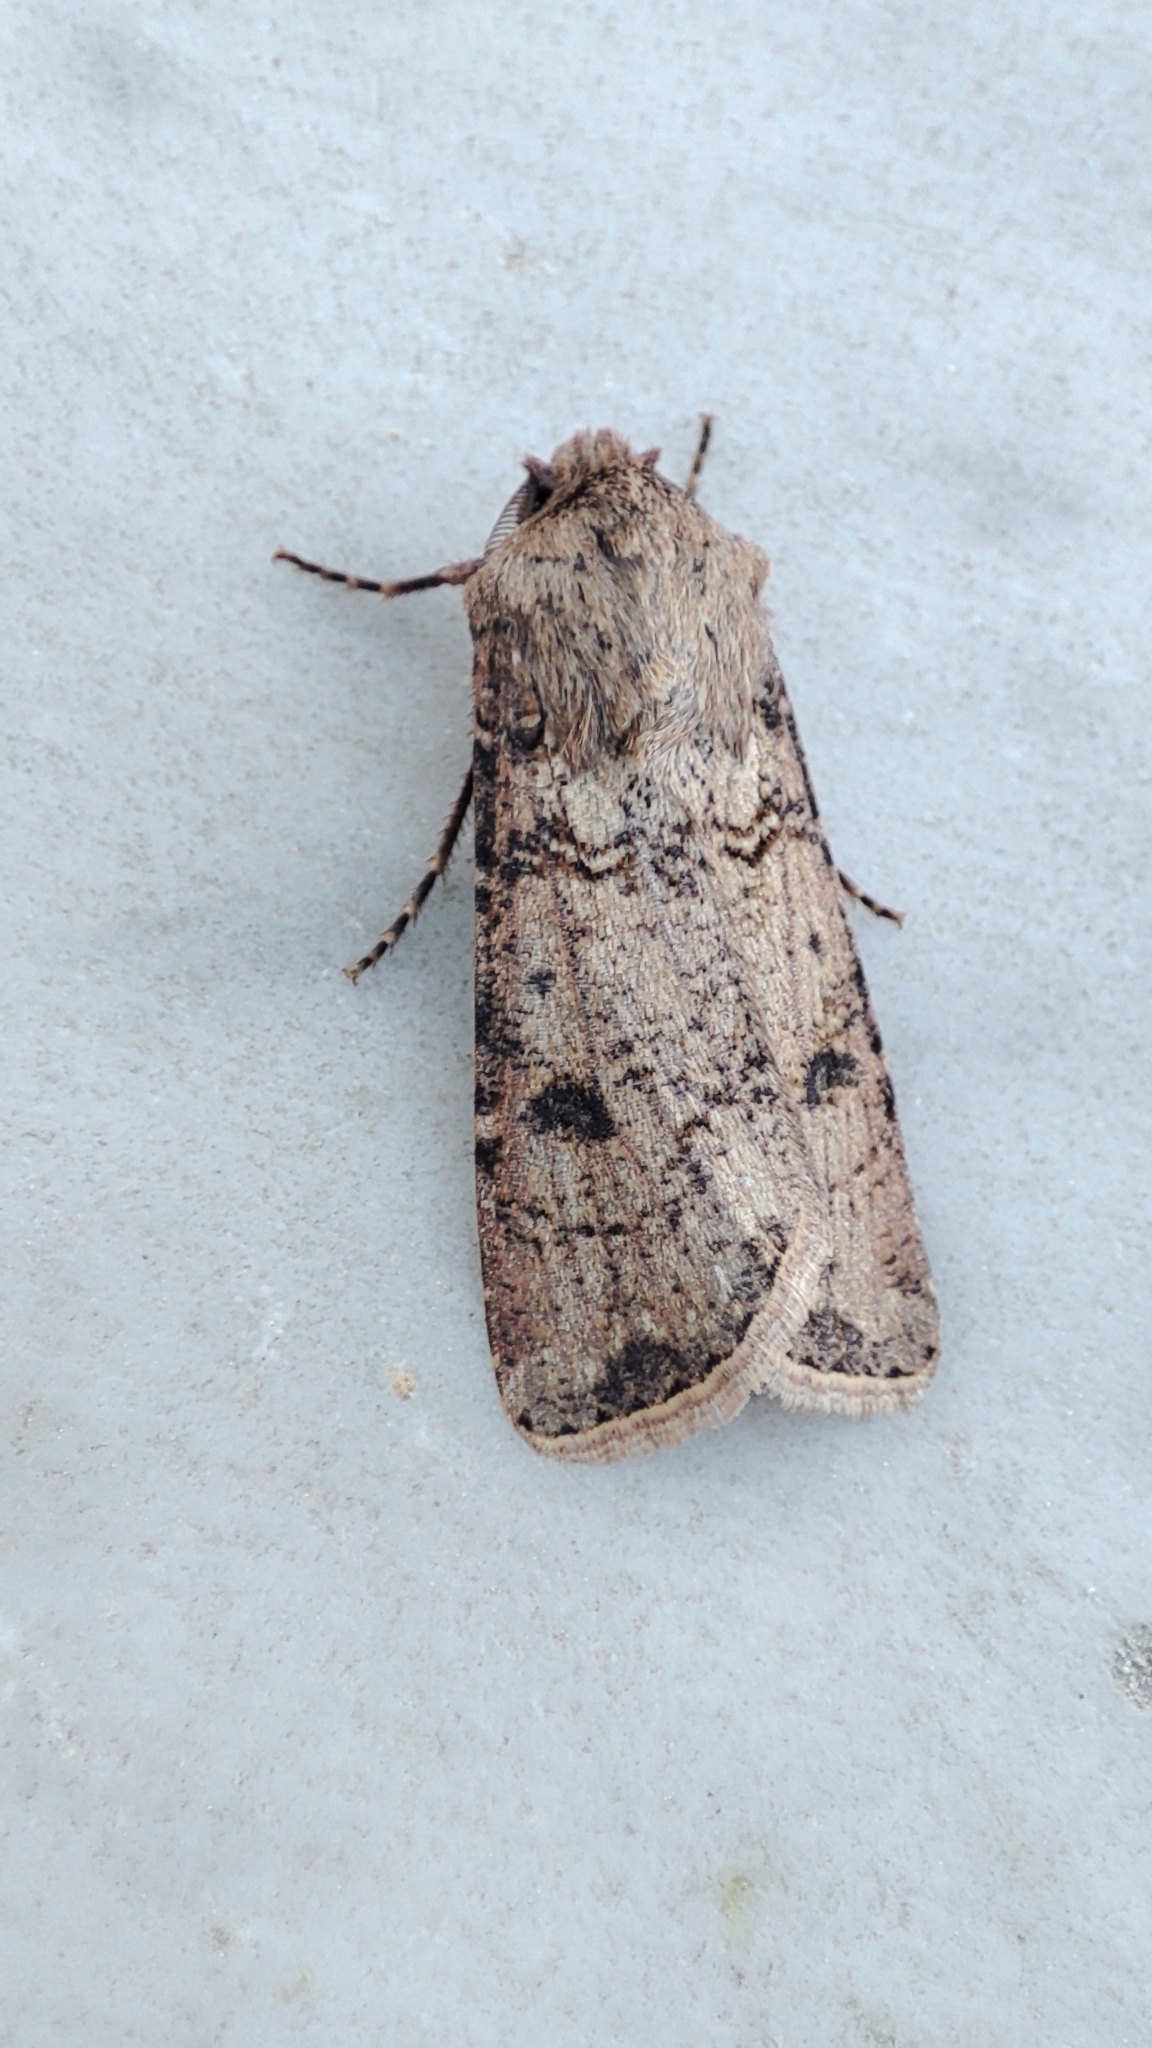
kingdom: Animalia
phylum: Arthropoda
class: Insecta
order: Lepidoptera
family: Noctuidae
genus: Agrotis
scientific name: Agrotis segetum
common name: Turnip moth
